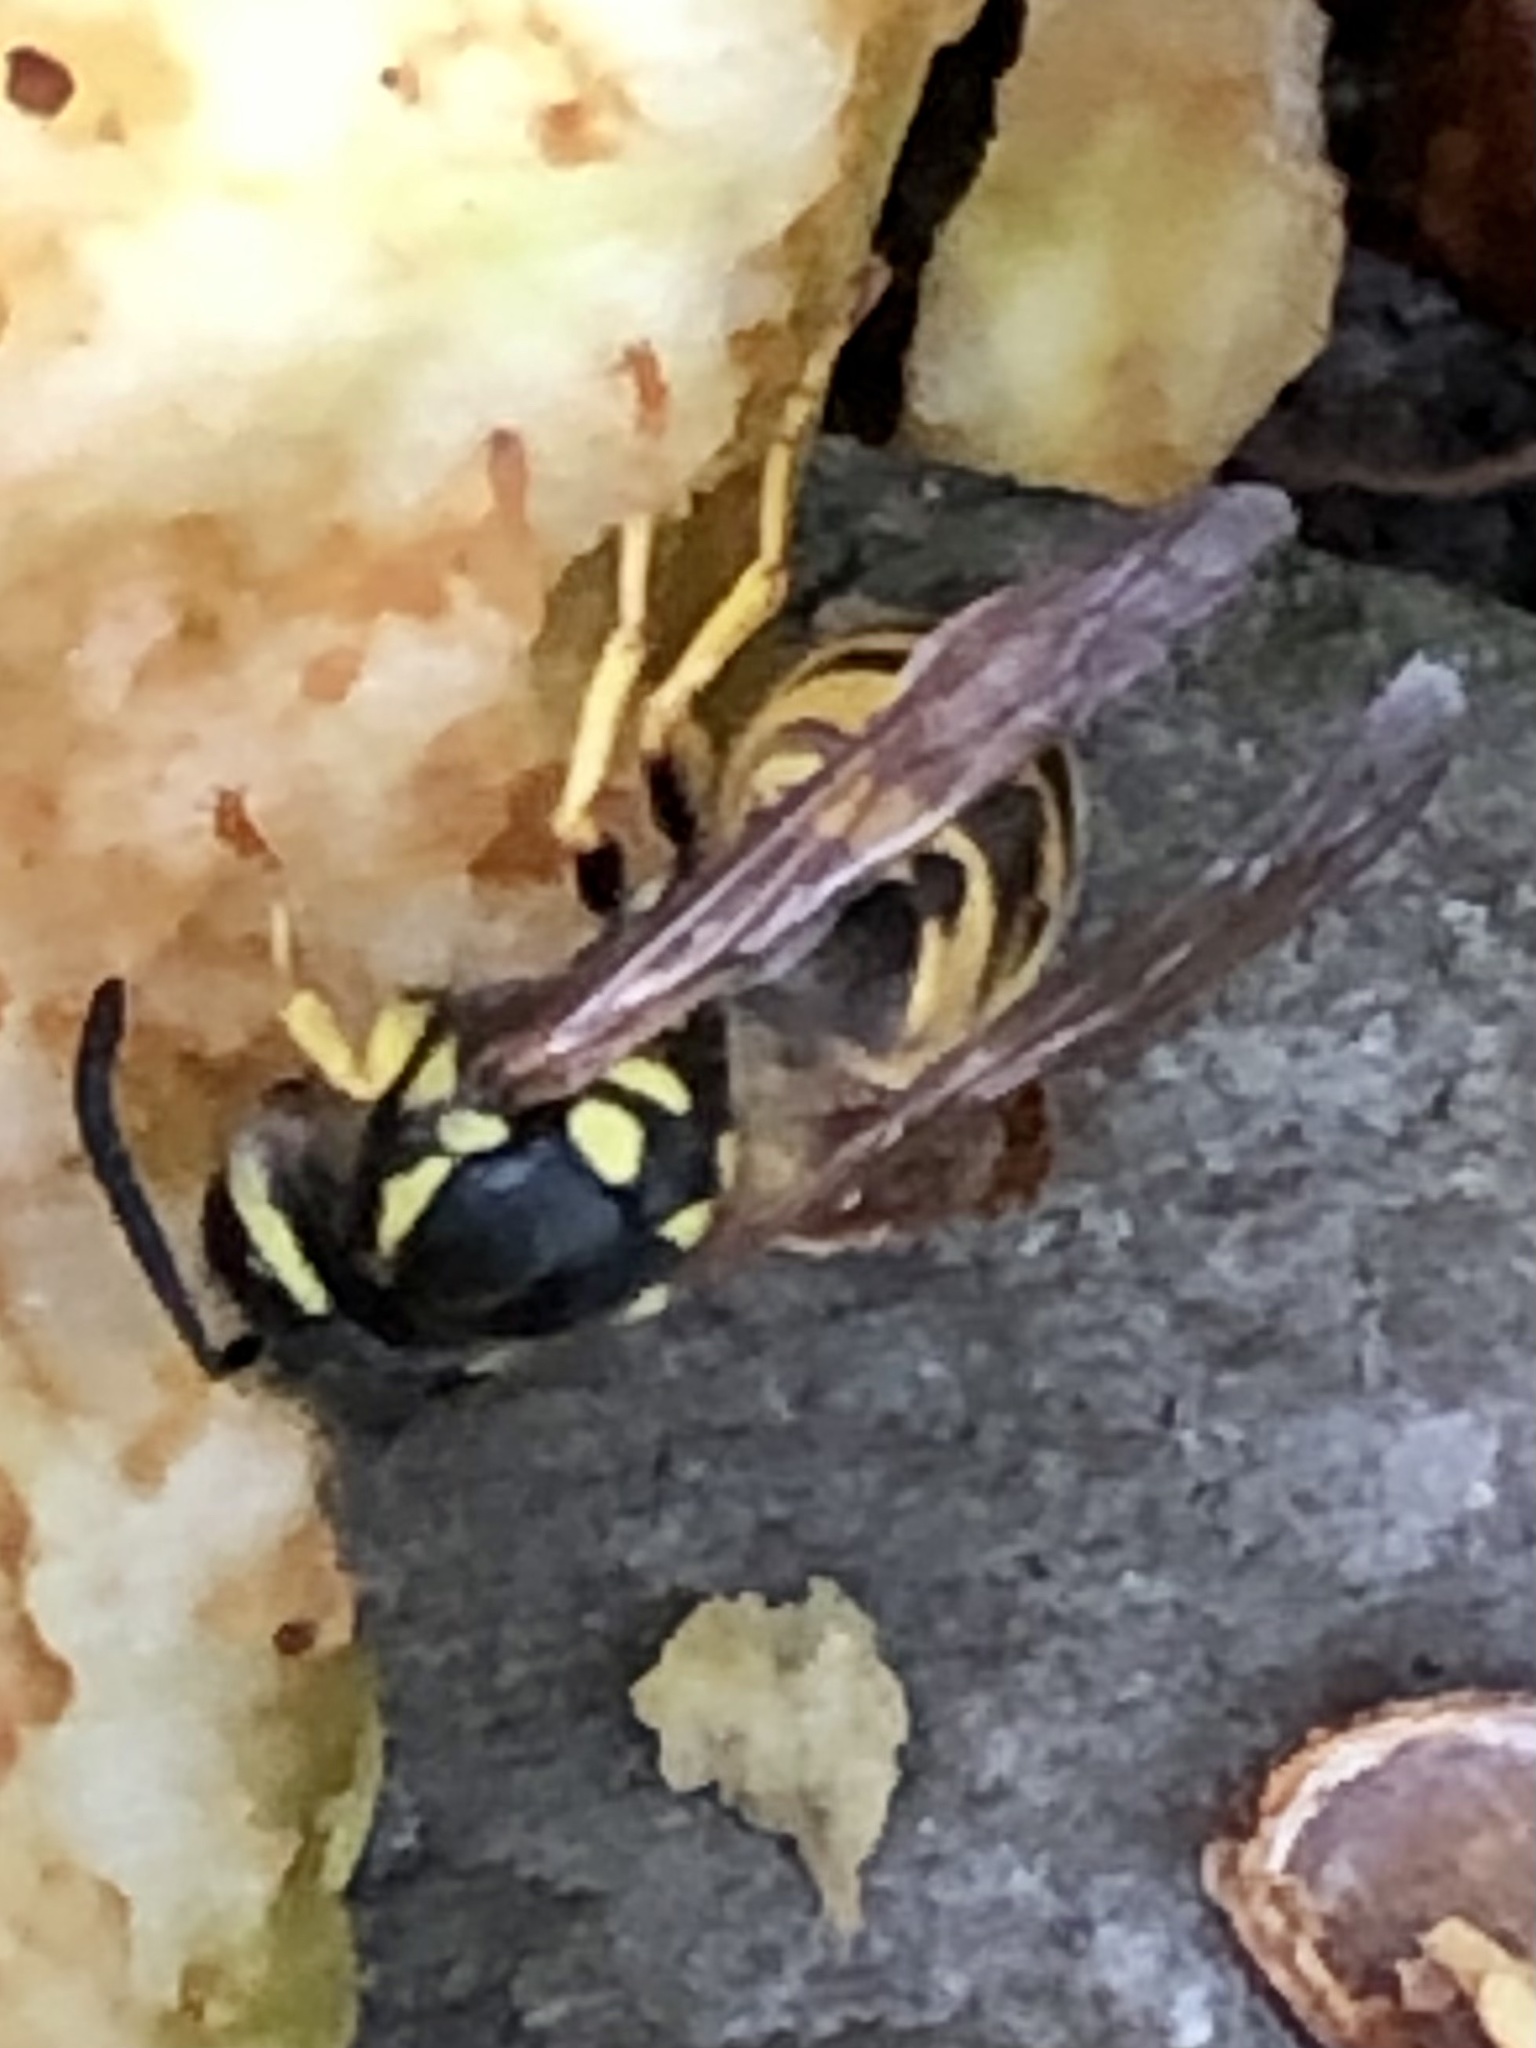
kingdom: Animalia
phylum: Arthropoda
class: Insecta
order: Hymenoptera
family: Vespidae
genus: Vespula
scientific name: Vespula germanica
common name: German wasp
